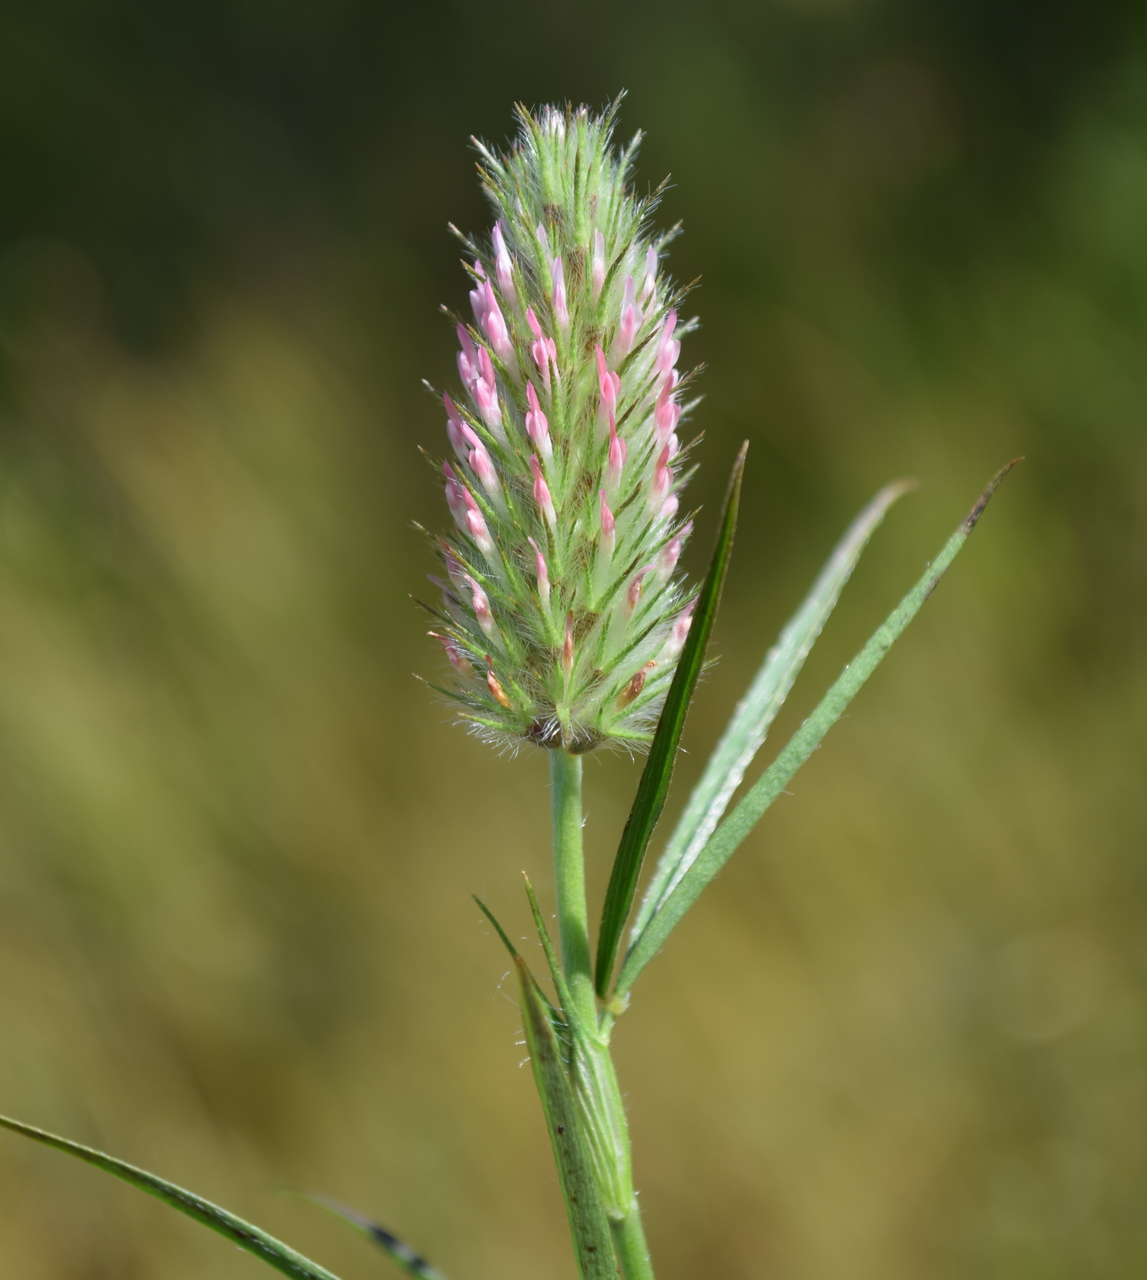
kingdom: Plantae
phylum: Tracheophyta
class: Magnoliopsida
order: Fabales
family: Fabaceae
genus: Trifolium
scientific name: Trifolium angustifolium
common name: Narrow clover
